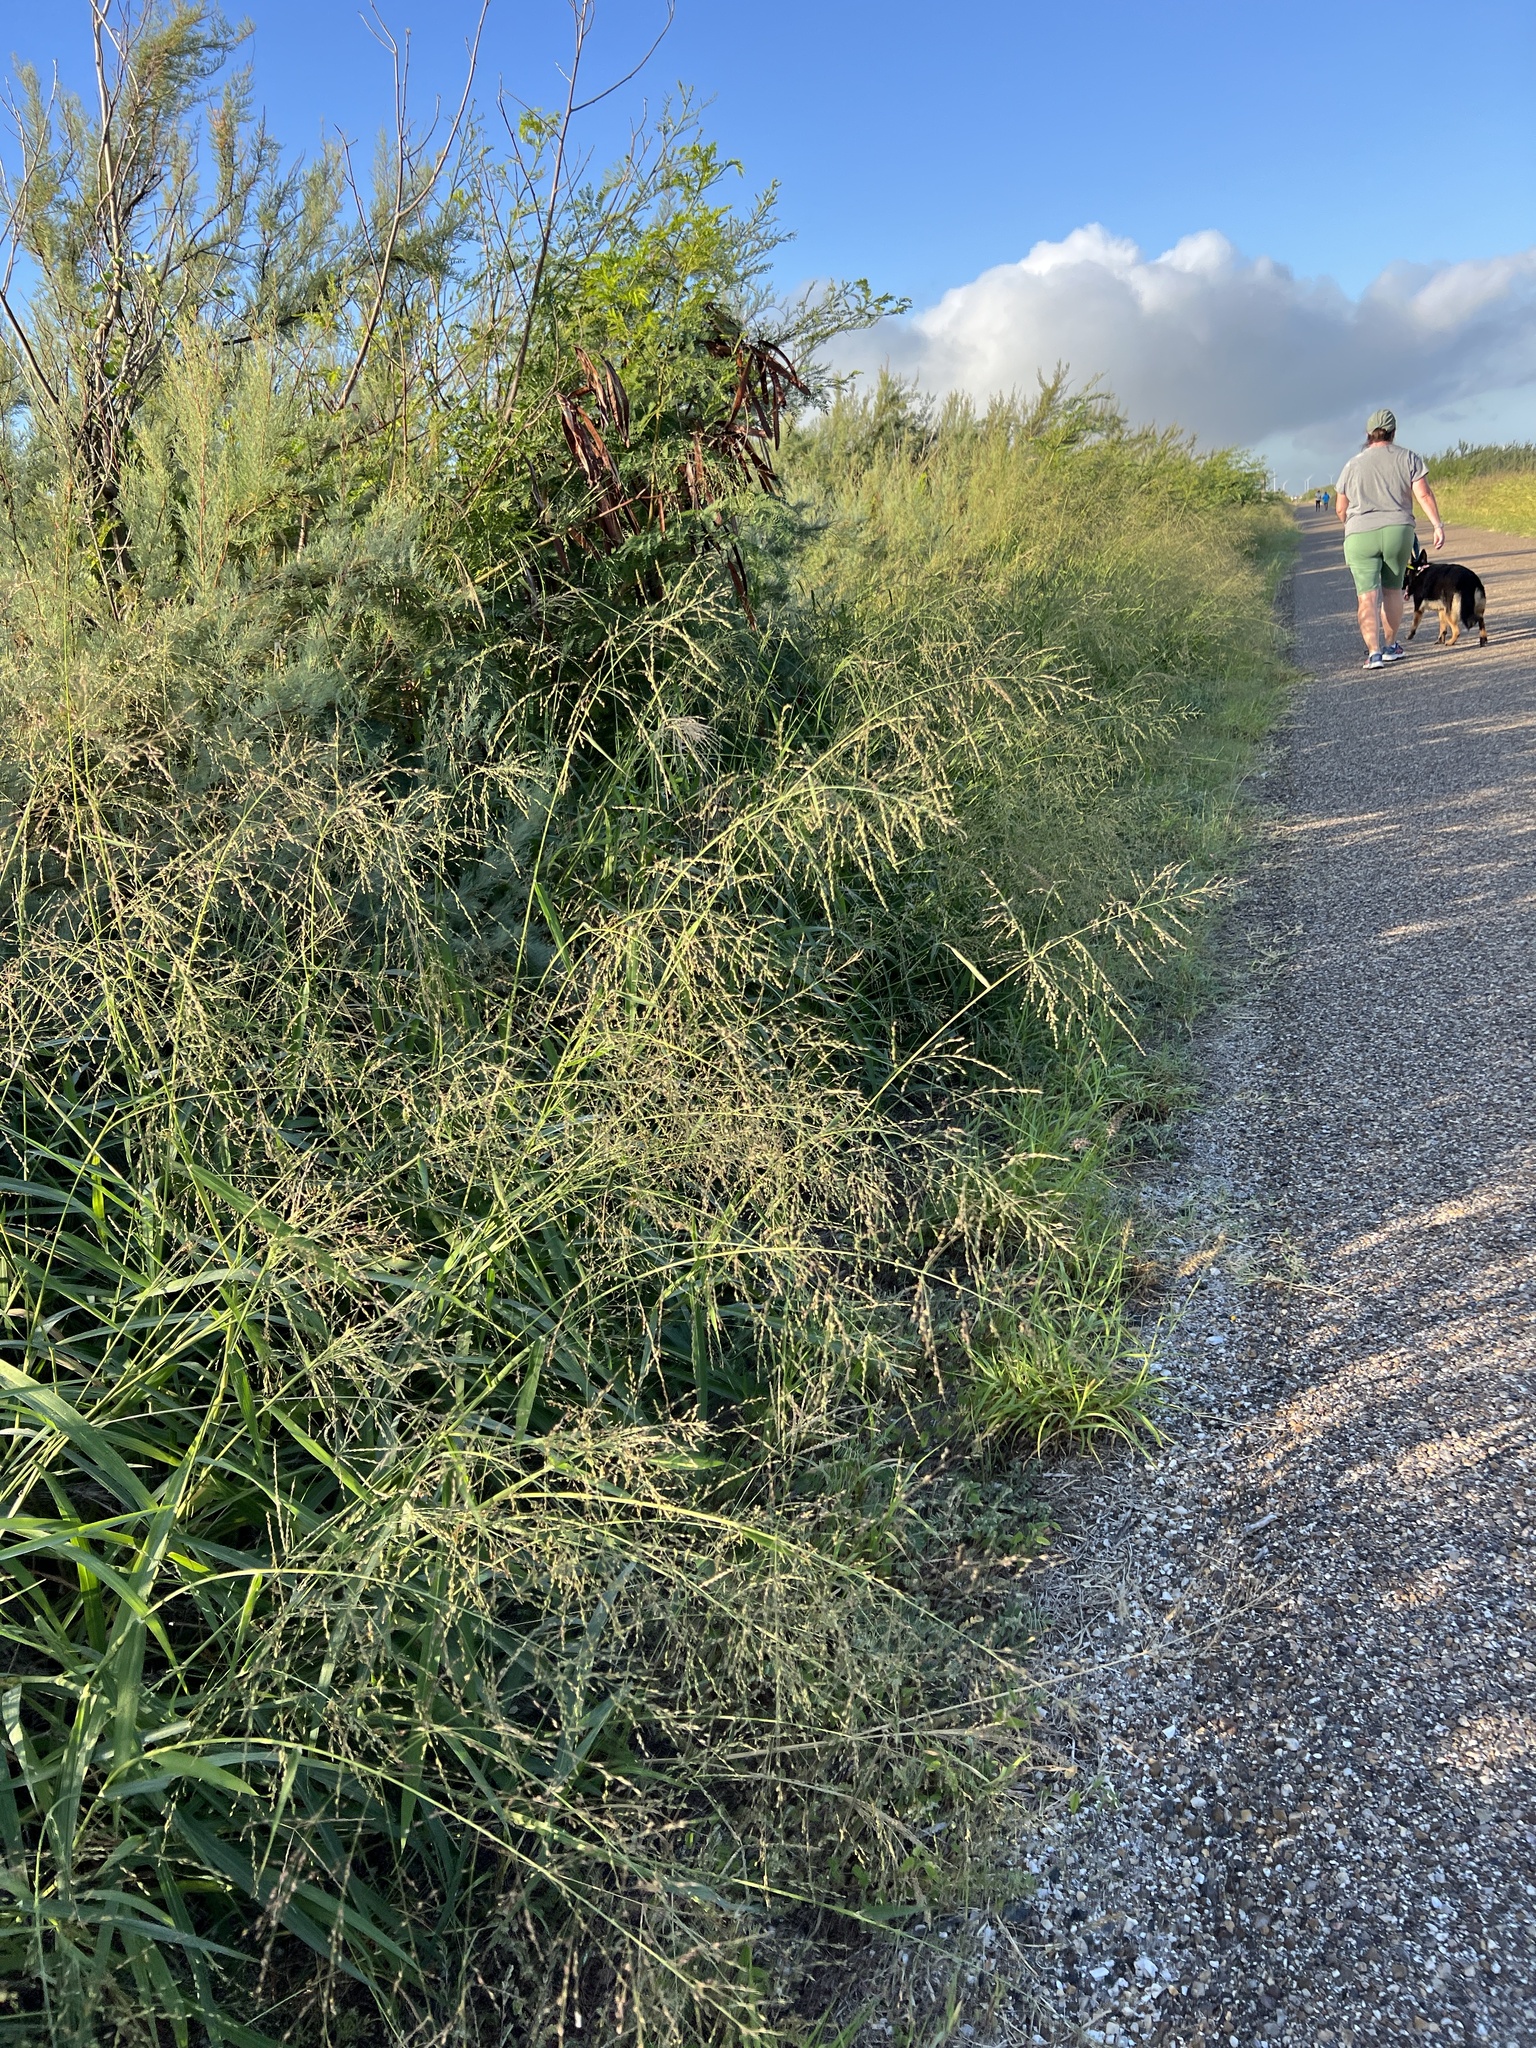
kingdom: Plantae
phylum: Tracheophyta
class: Liliopsida
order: Poales
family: Poaceae
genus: Megathyrsus
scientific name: Megathyrsus maximus
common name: Guineagrass
